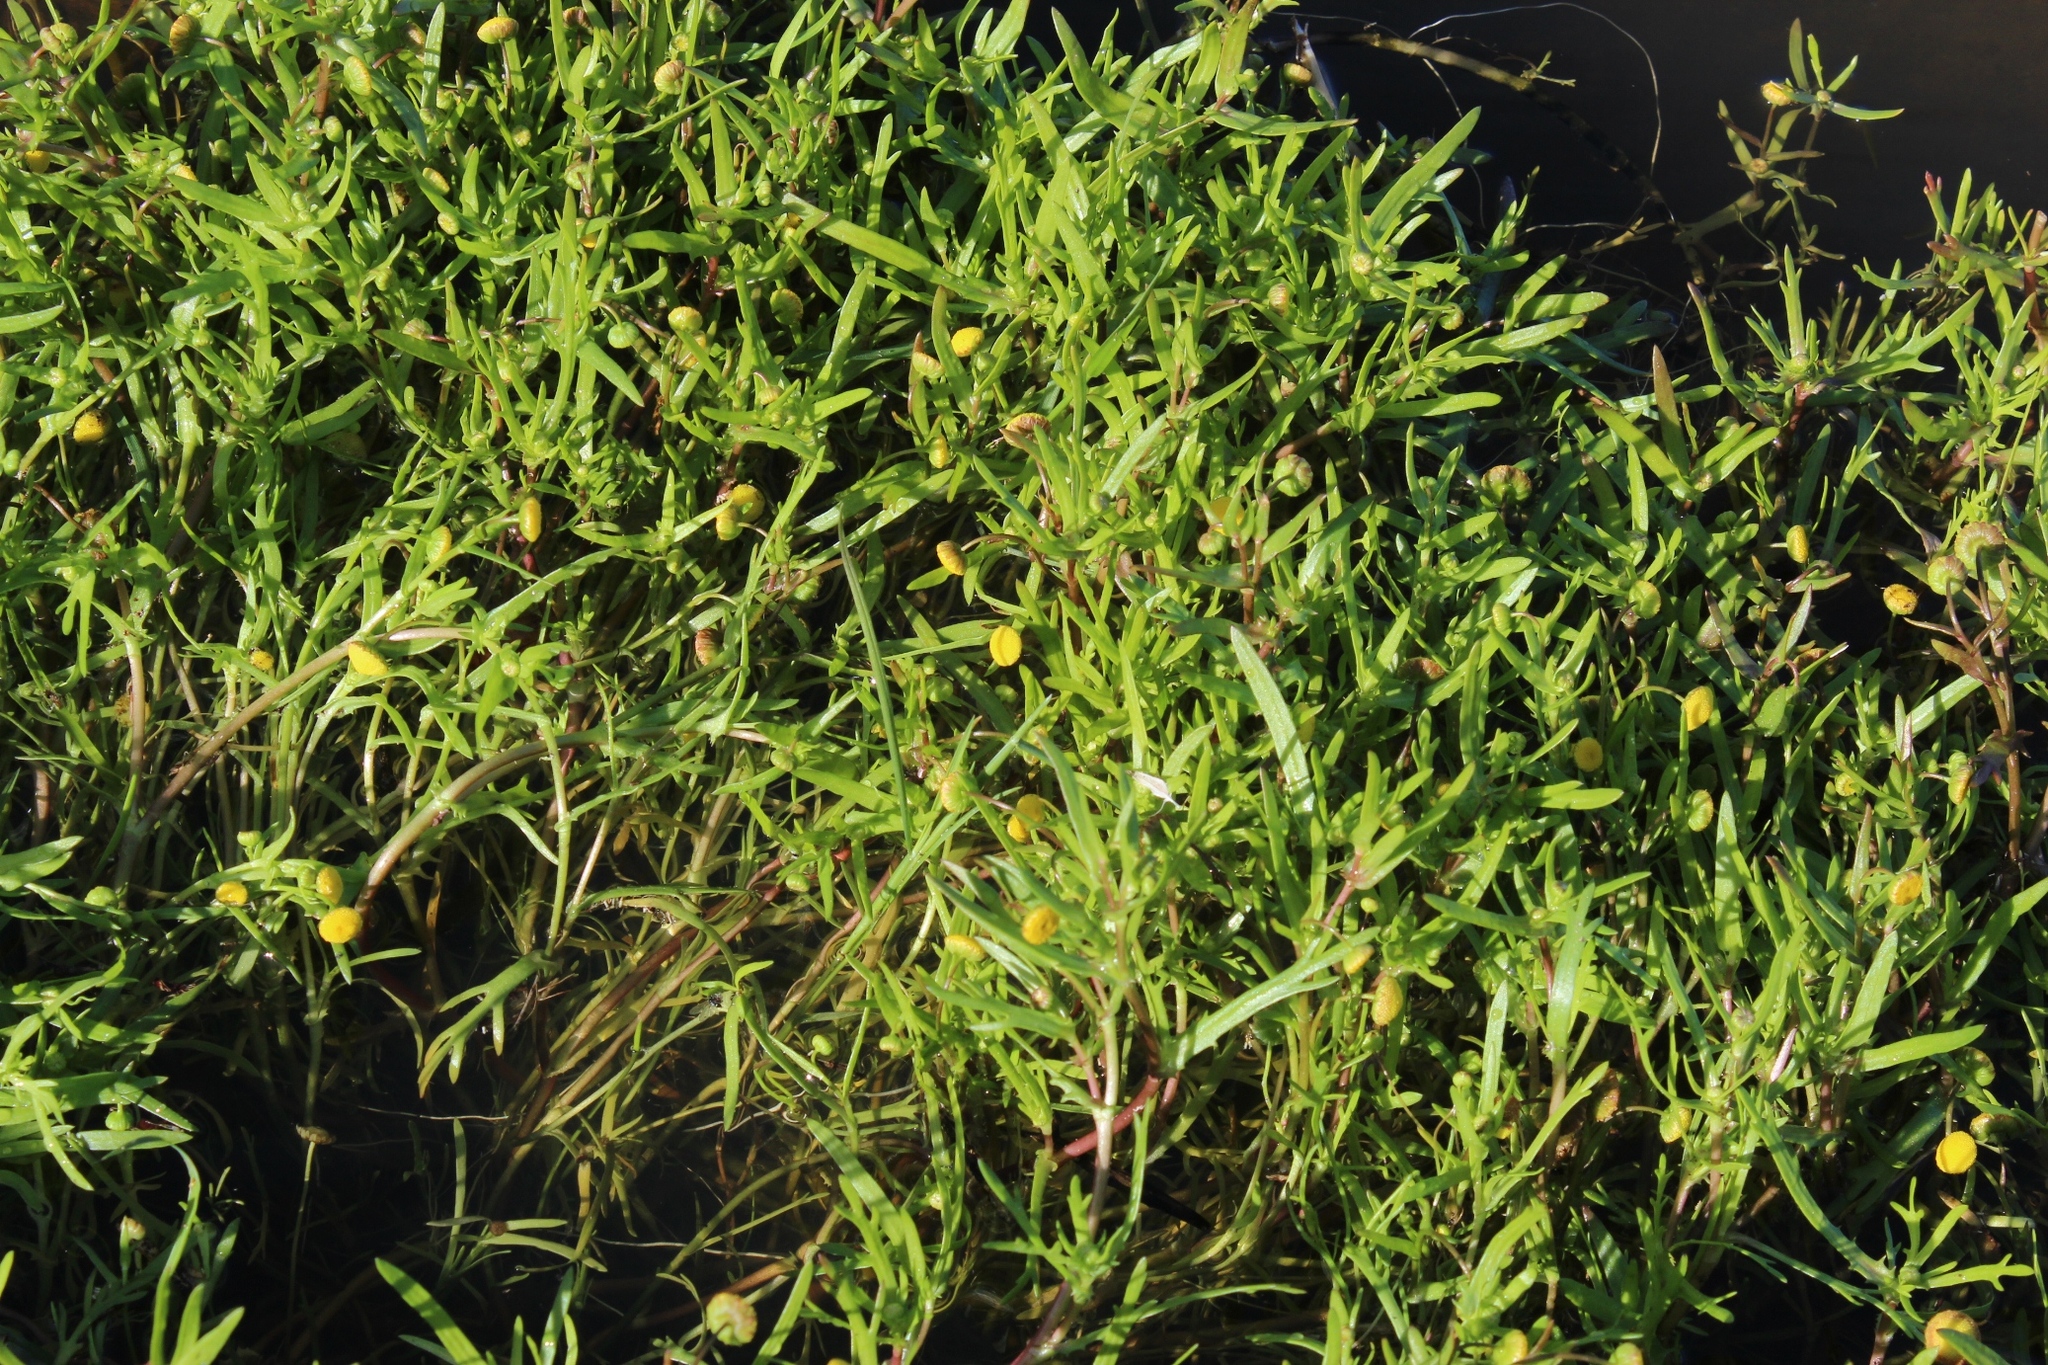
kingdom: Plantae
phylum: Tracheophyta
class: Magnoliopsida
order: Asterales
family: Asteraceae
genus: Cotula
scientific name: Cotula coronopifolia
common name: Buttonweed
